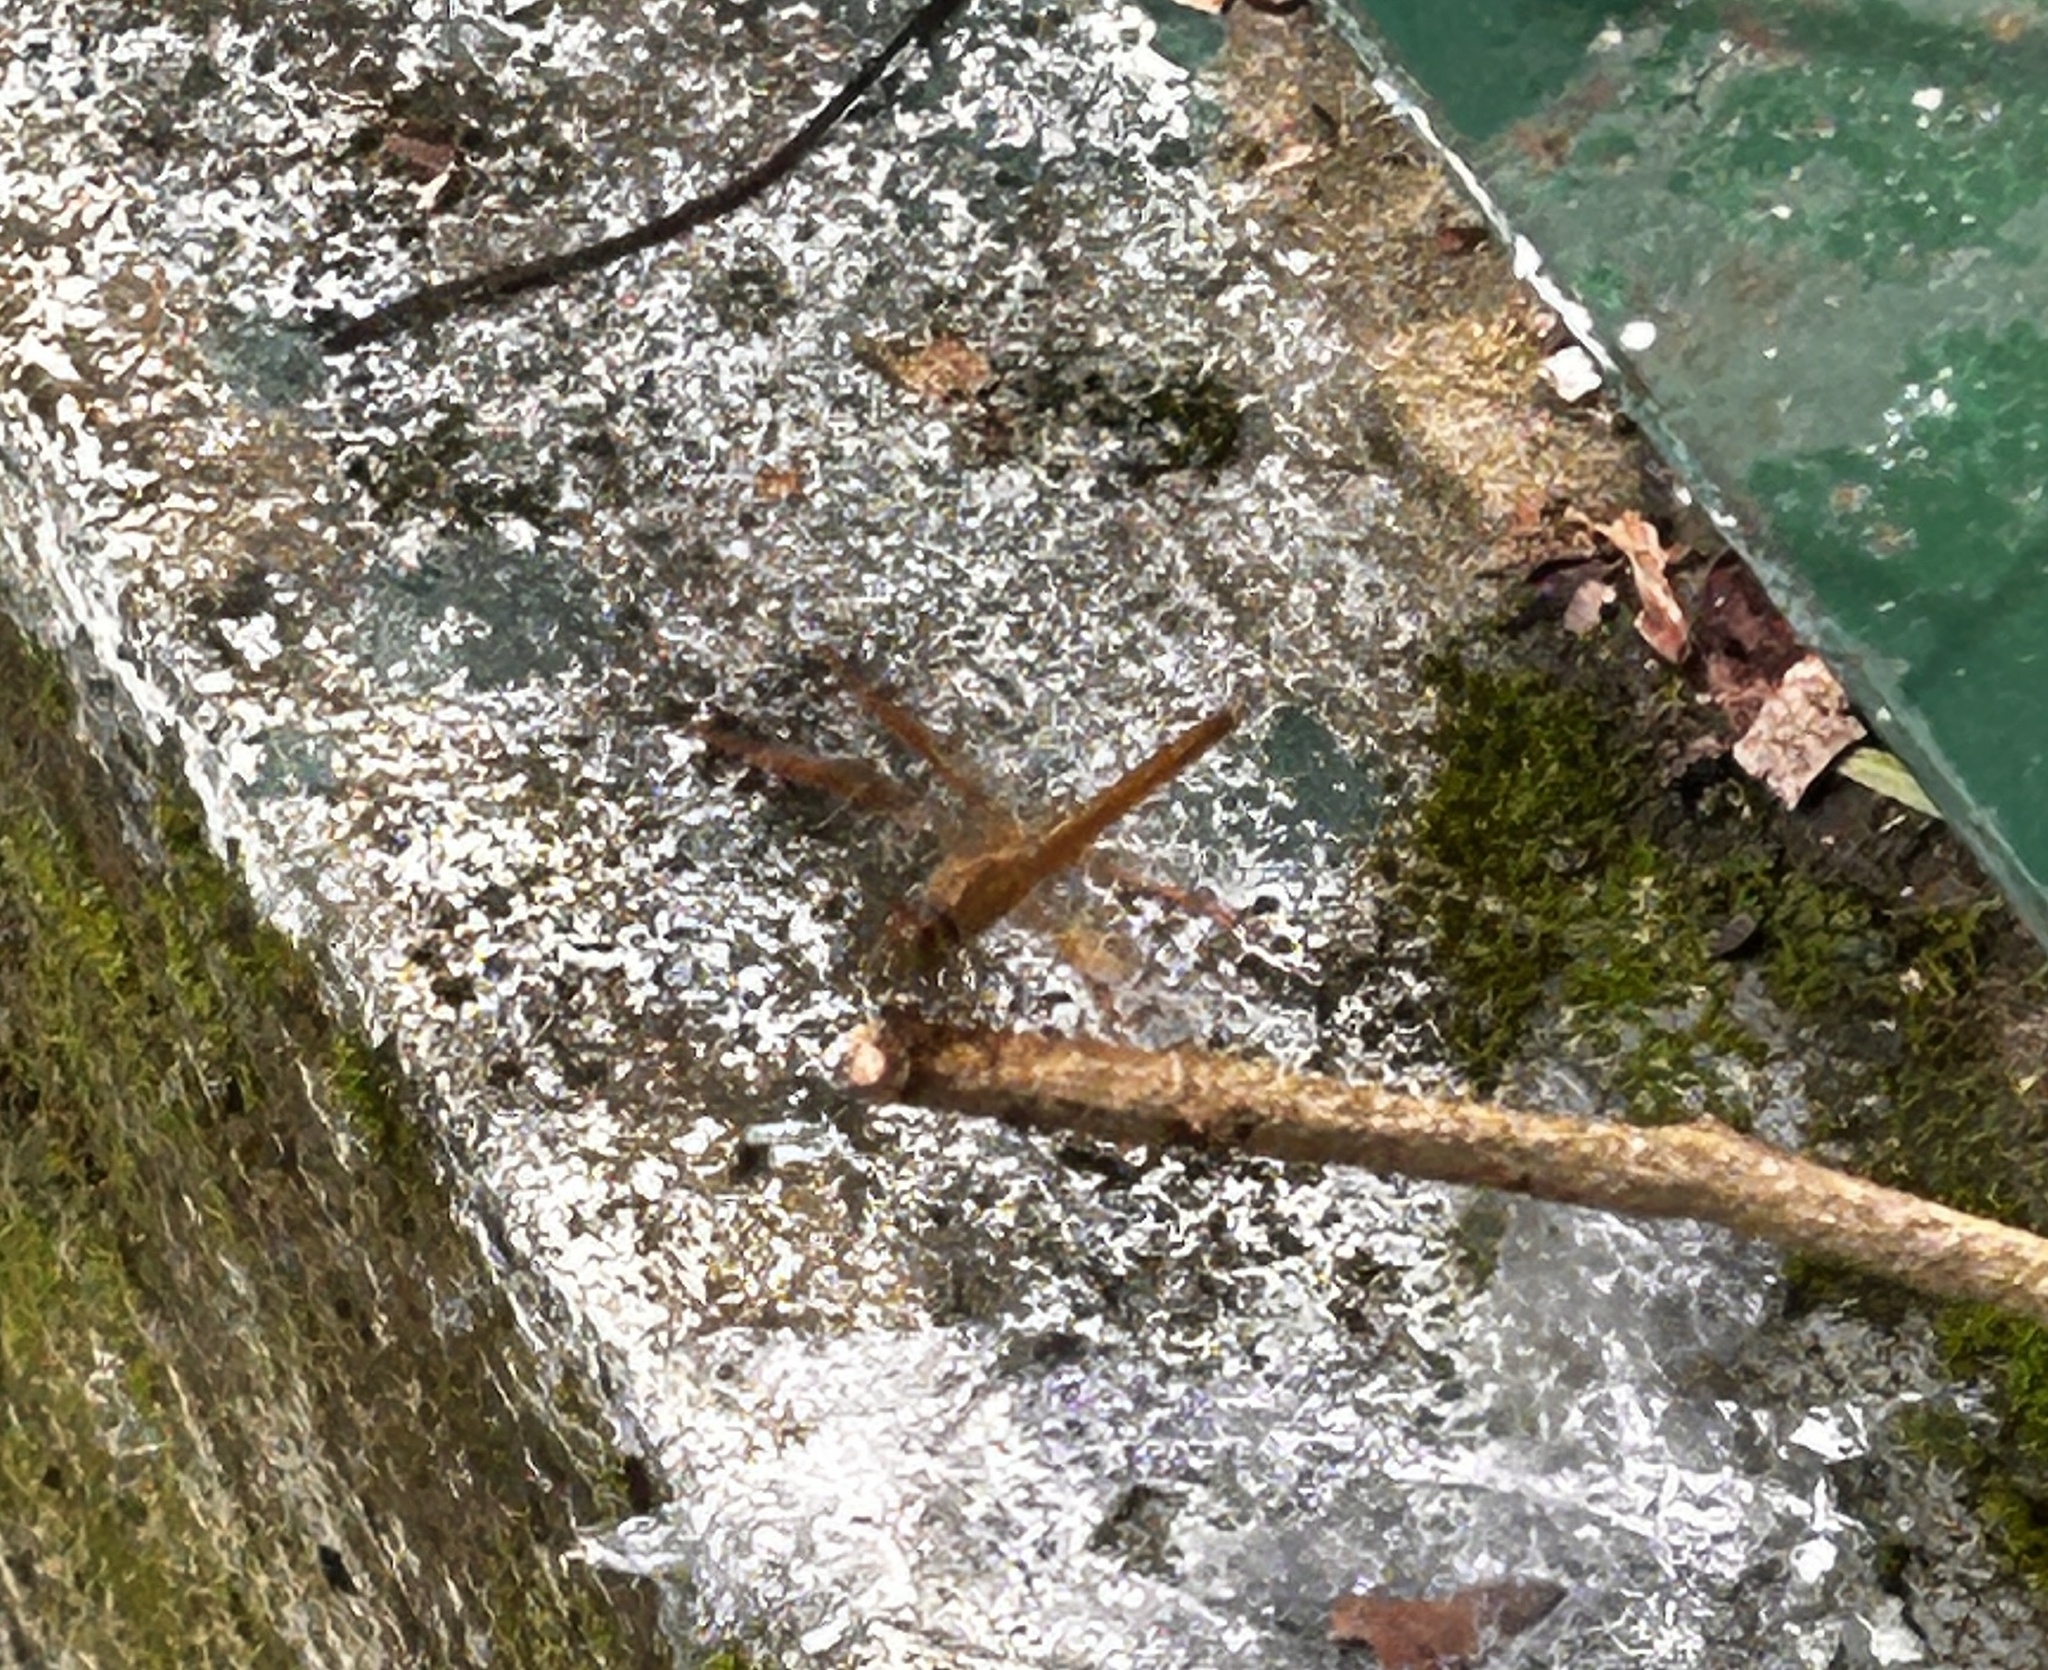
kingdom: Animalia
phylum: Arthropoda
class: Insecta
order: Odonata
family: Libellulidae
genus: Brachythemis
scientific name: Brachythemis contaminata
